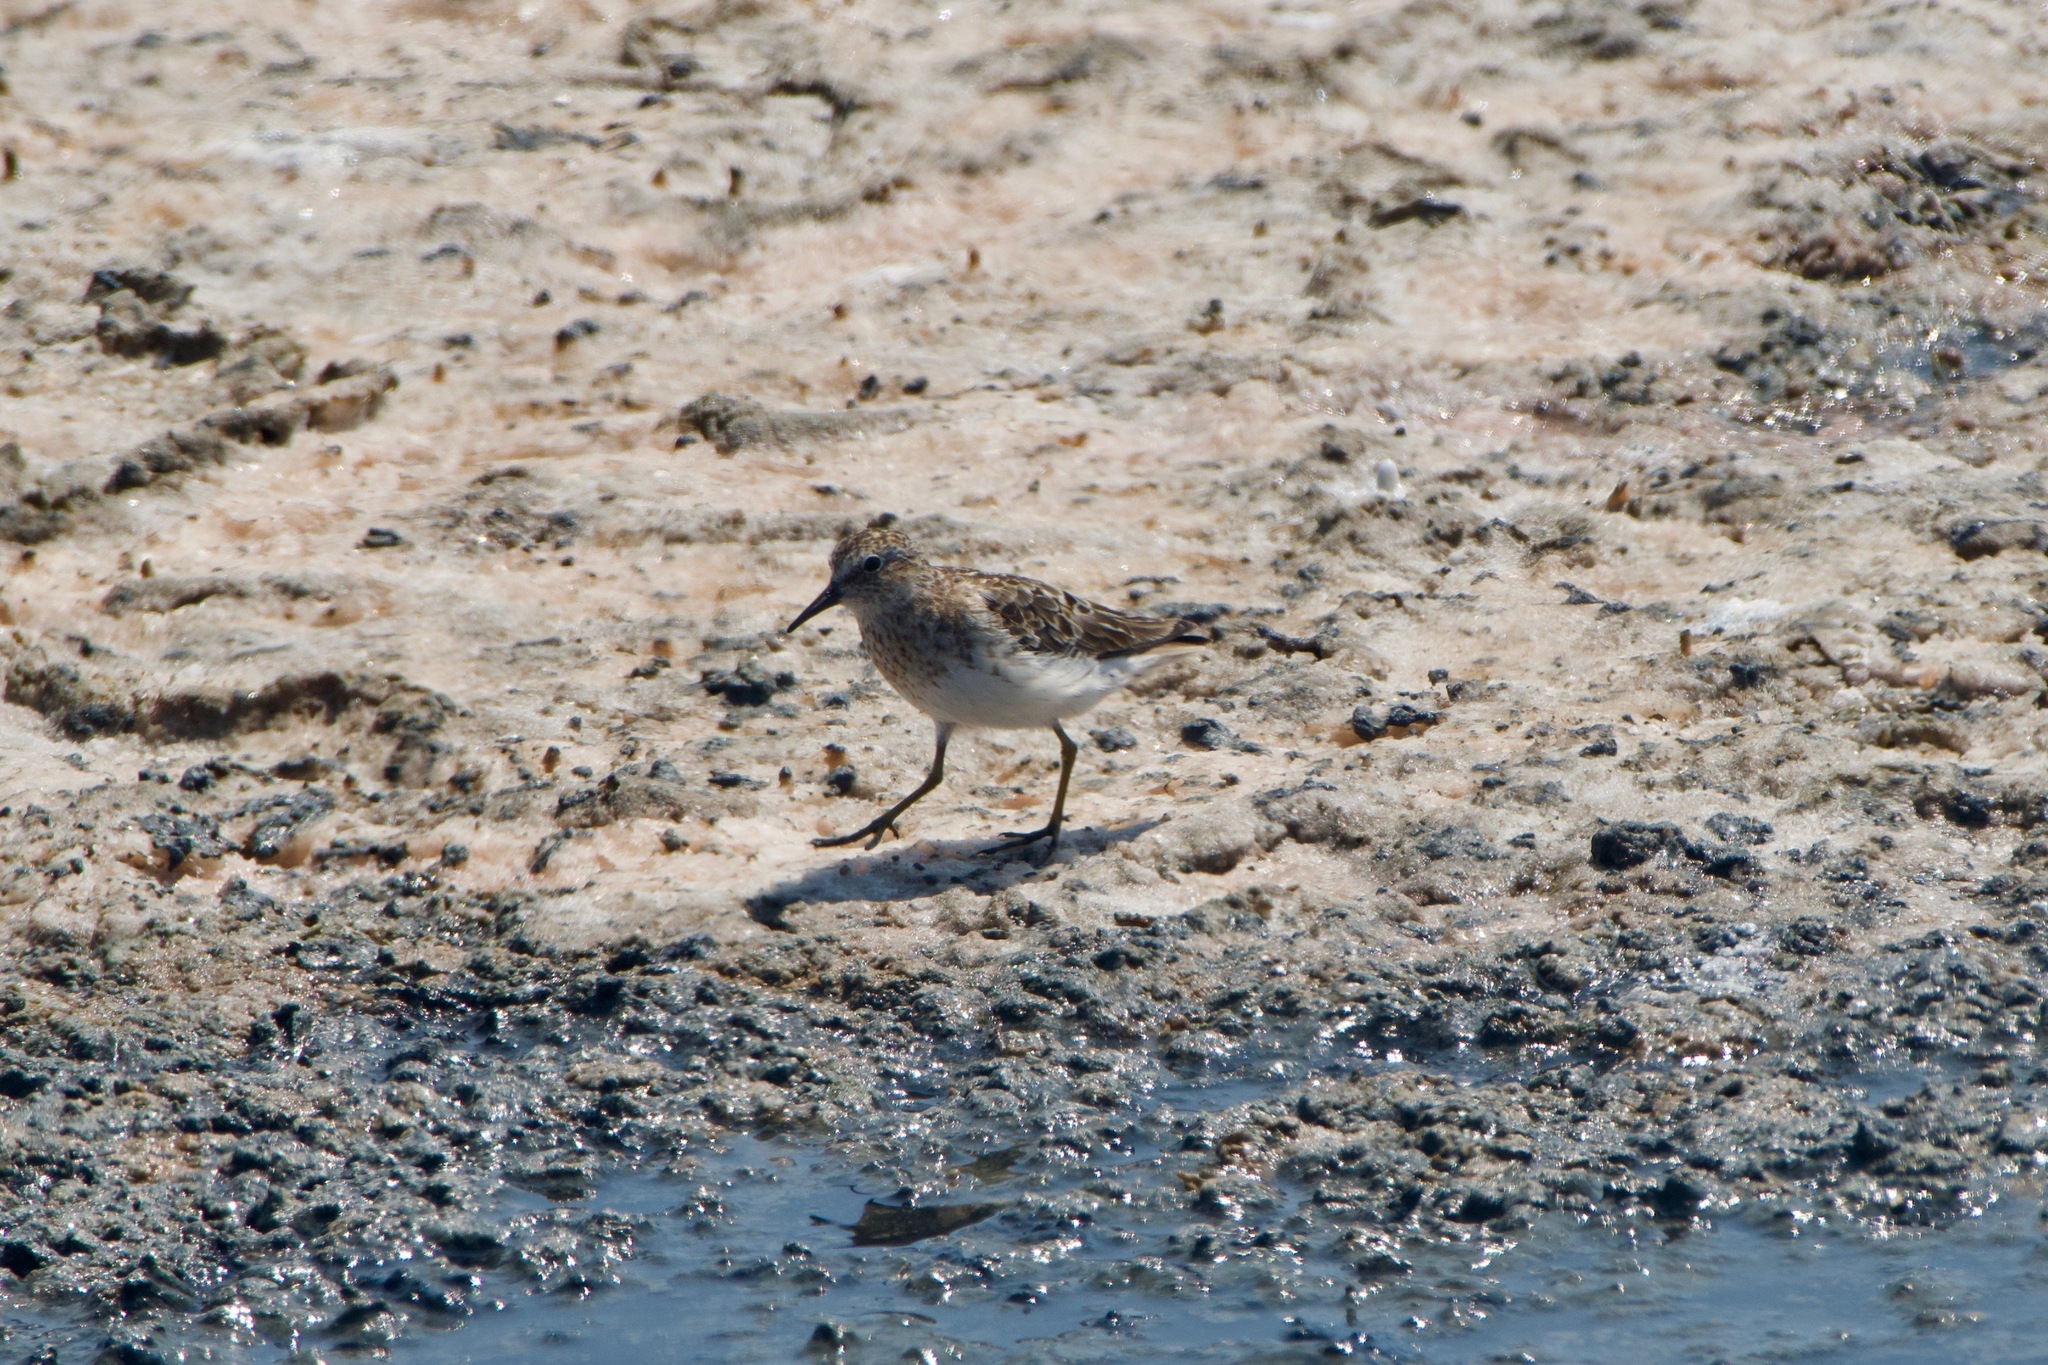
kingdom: Animalia
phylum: Chordata
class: Aves
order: Charadriiformes
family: Scolopacidae
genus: Calidris
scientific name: Calidris minutilla
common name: Least sandpiper
